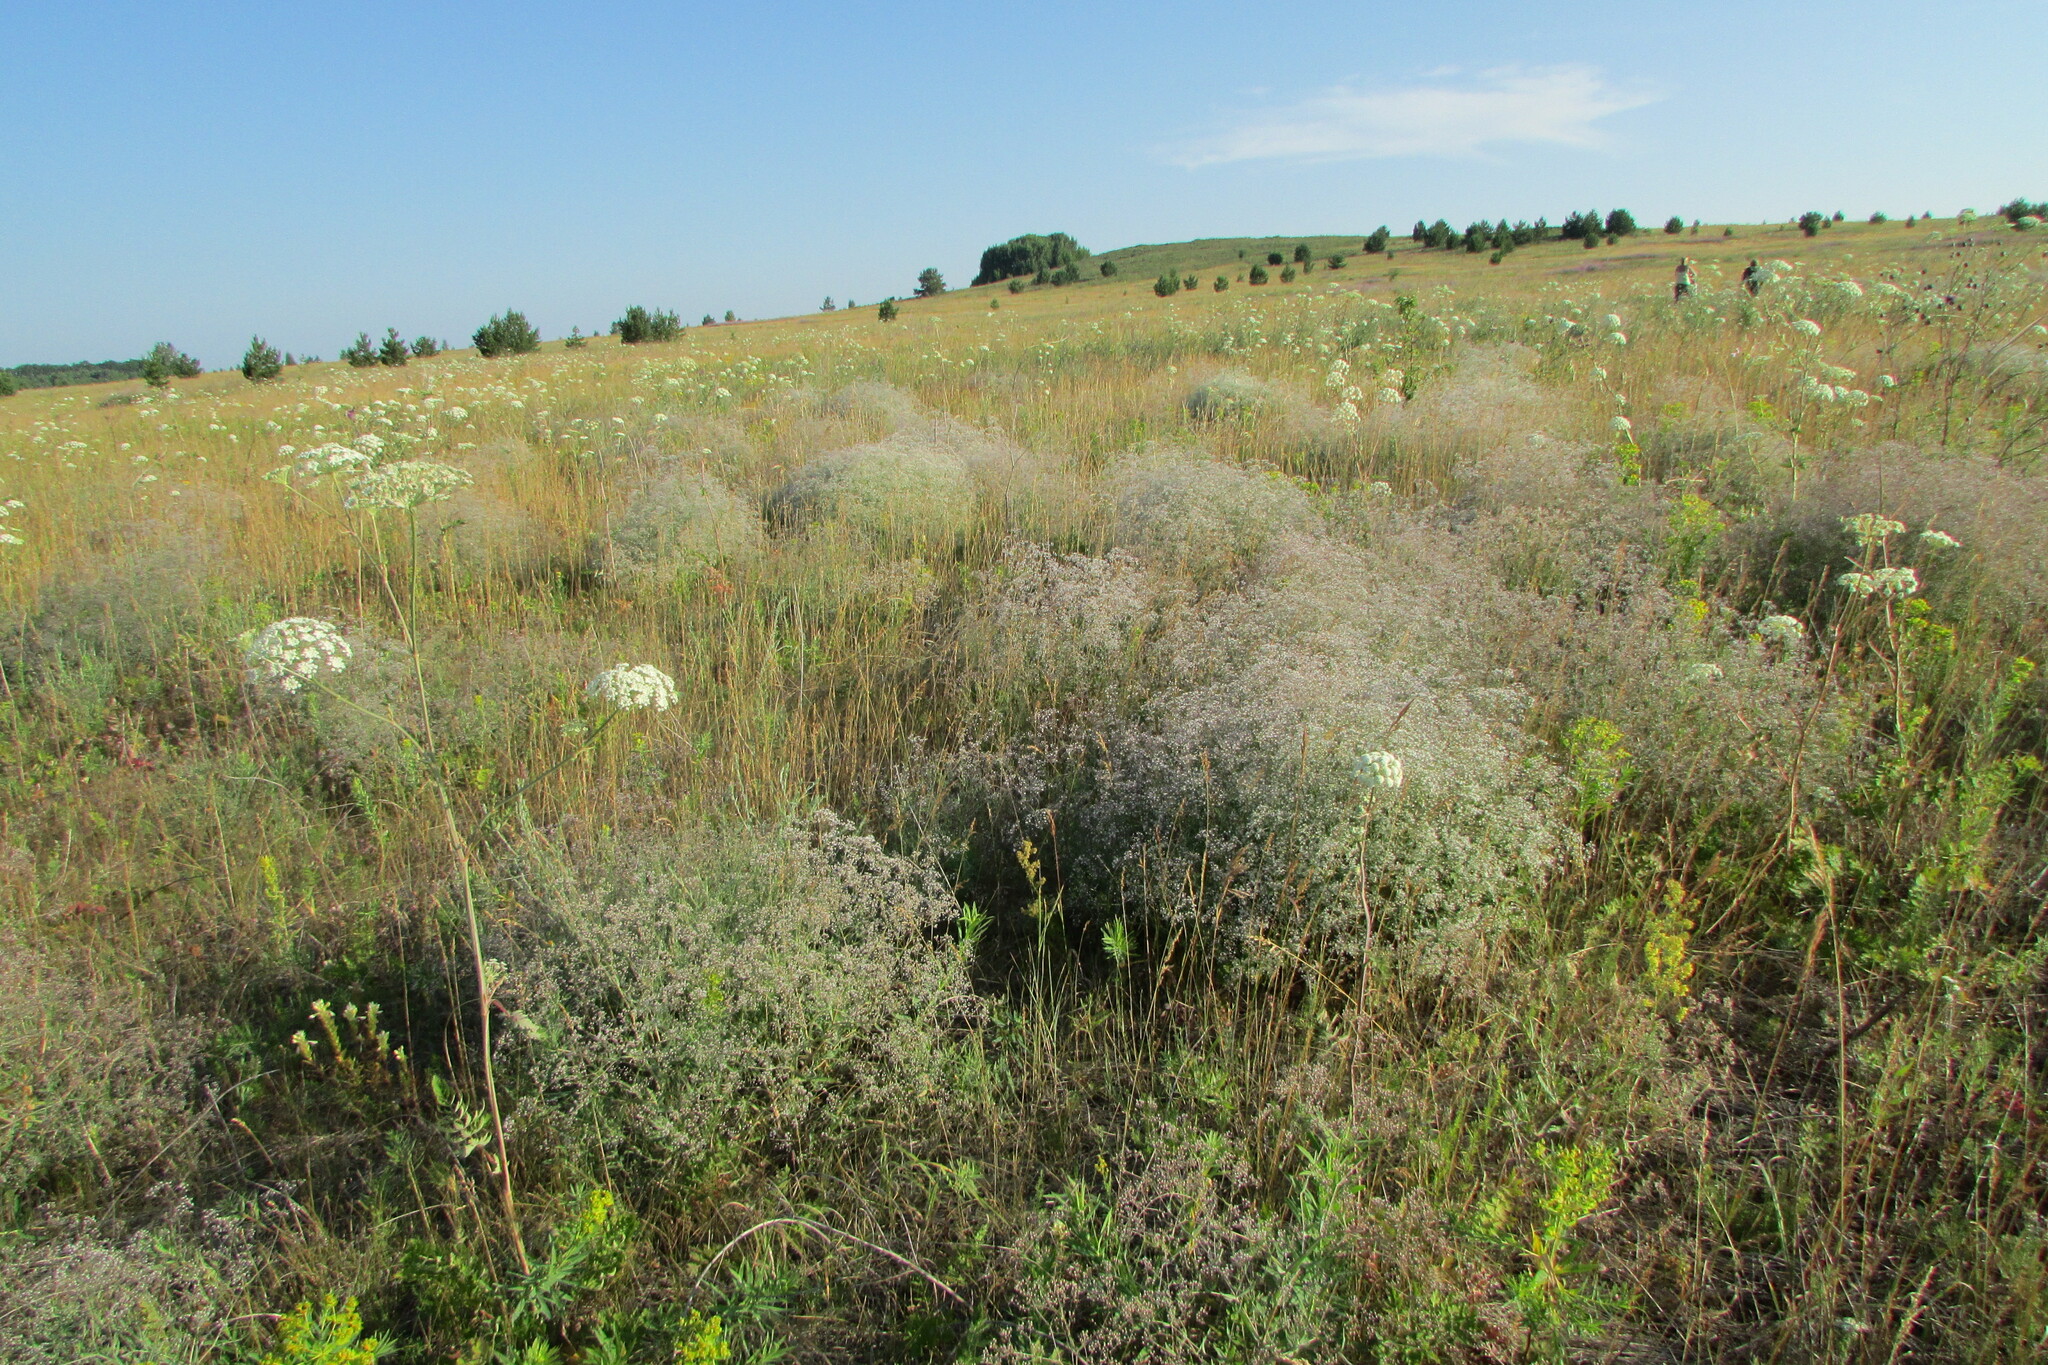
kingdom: Plantae
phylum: Tracheophyta
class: Magnoliopsida
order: Caryophyllales
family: Caryophyllaceae
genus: Gypsophila
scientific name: Gypsophila paniculata
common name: Baby's-breath
